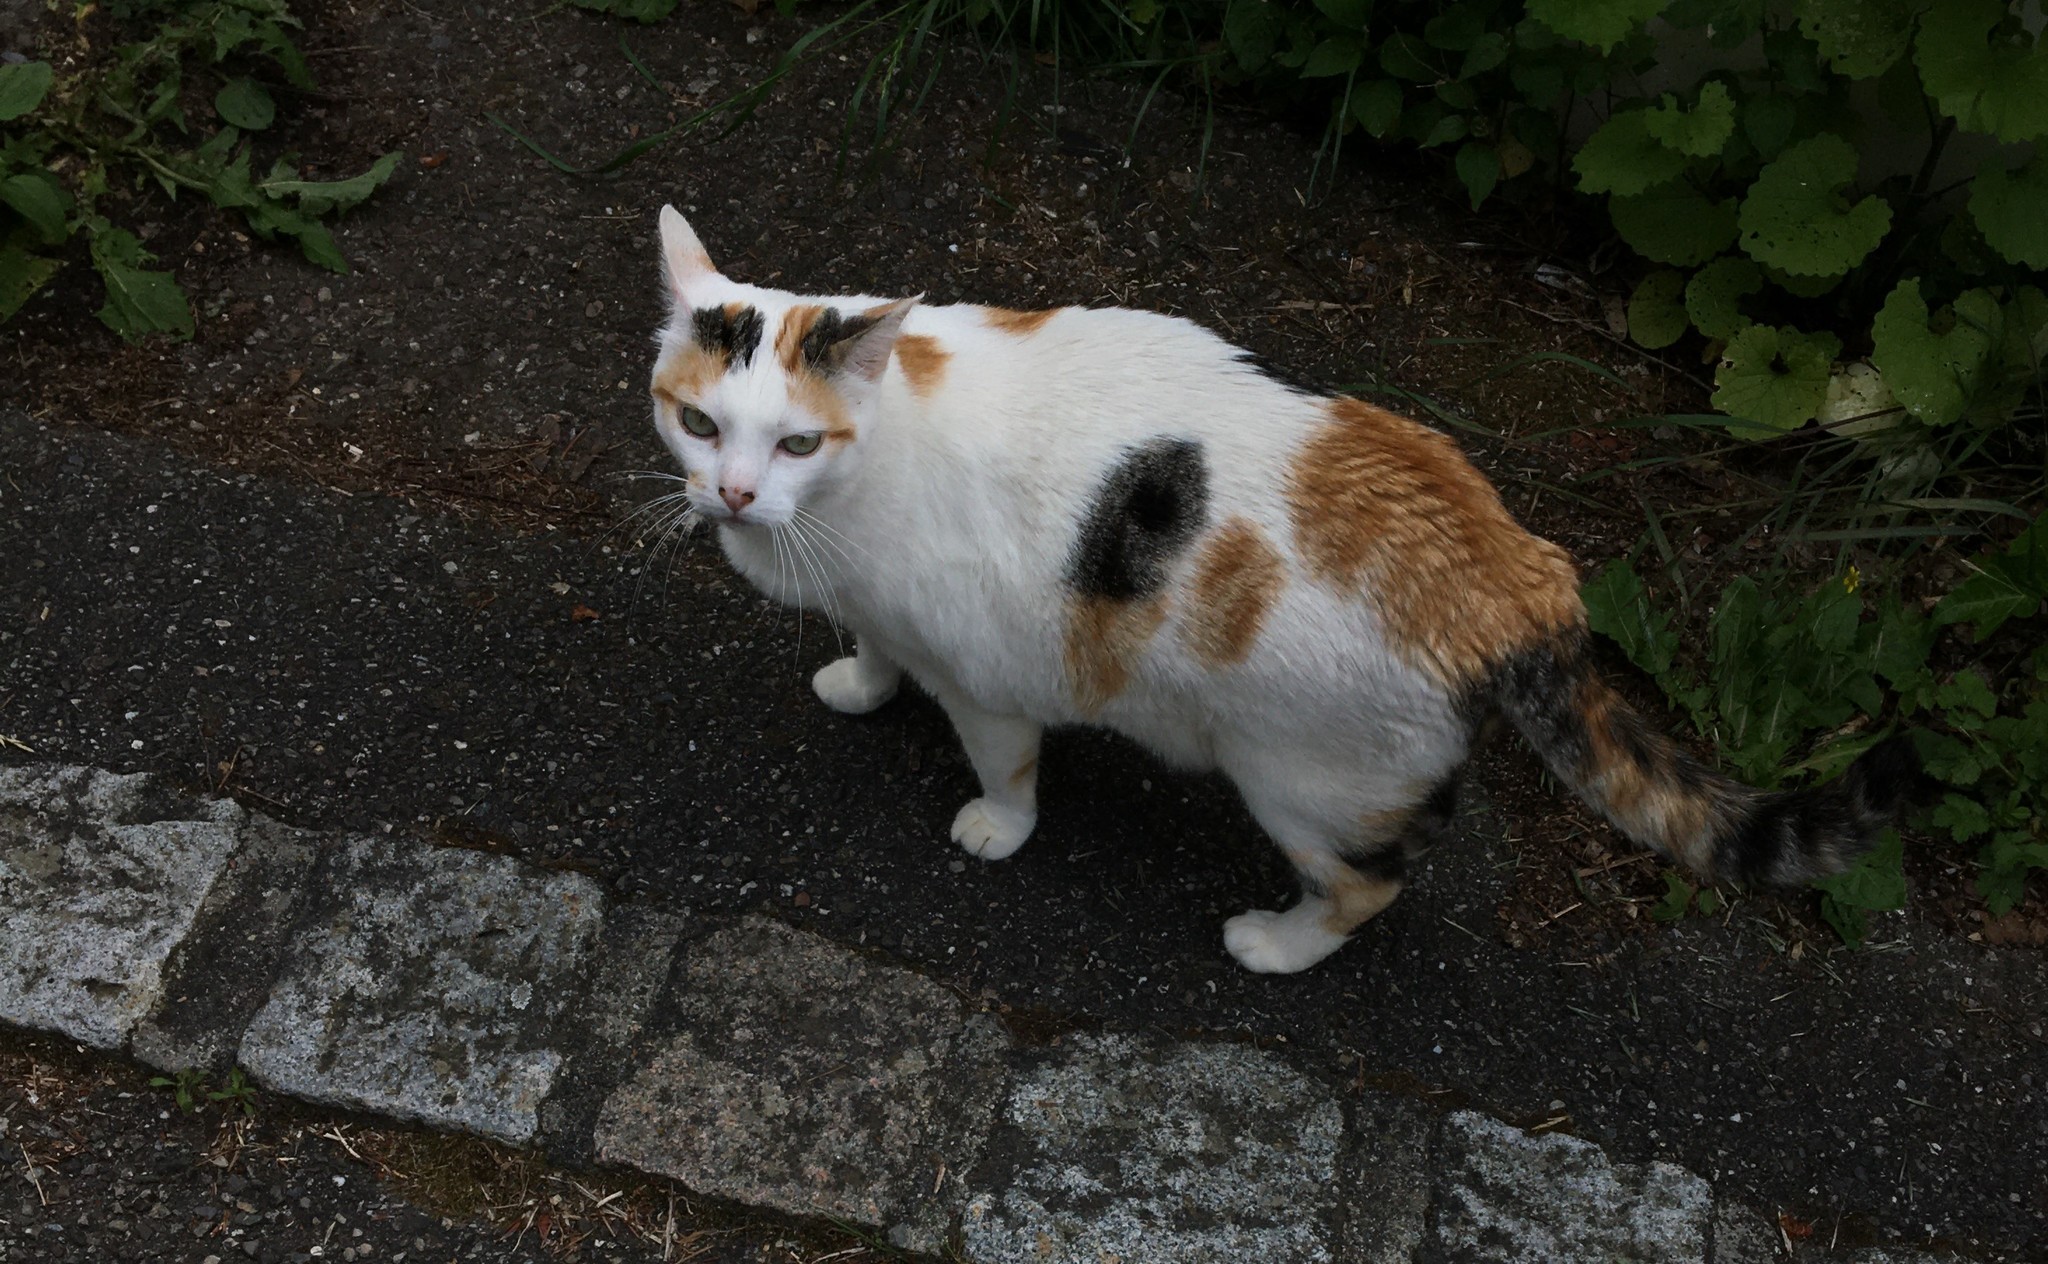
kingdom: Animalia
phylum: Chordata
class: Mammalia
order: Carnivora
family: Felidae
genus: Felis
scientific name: Felis catus
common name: Domestic cat
